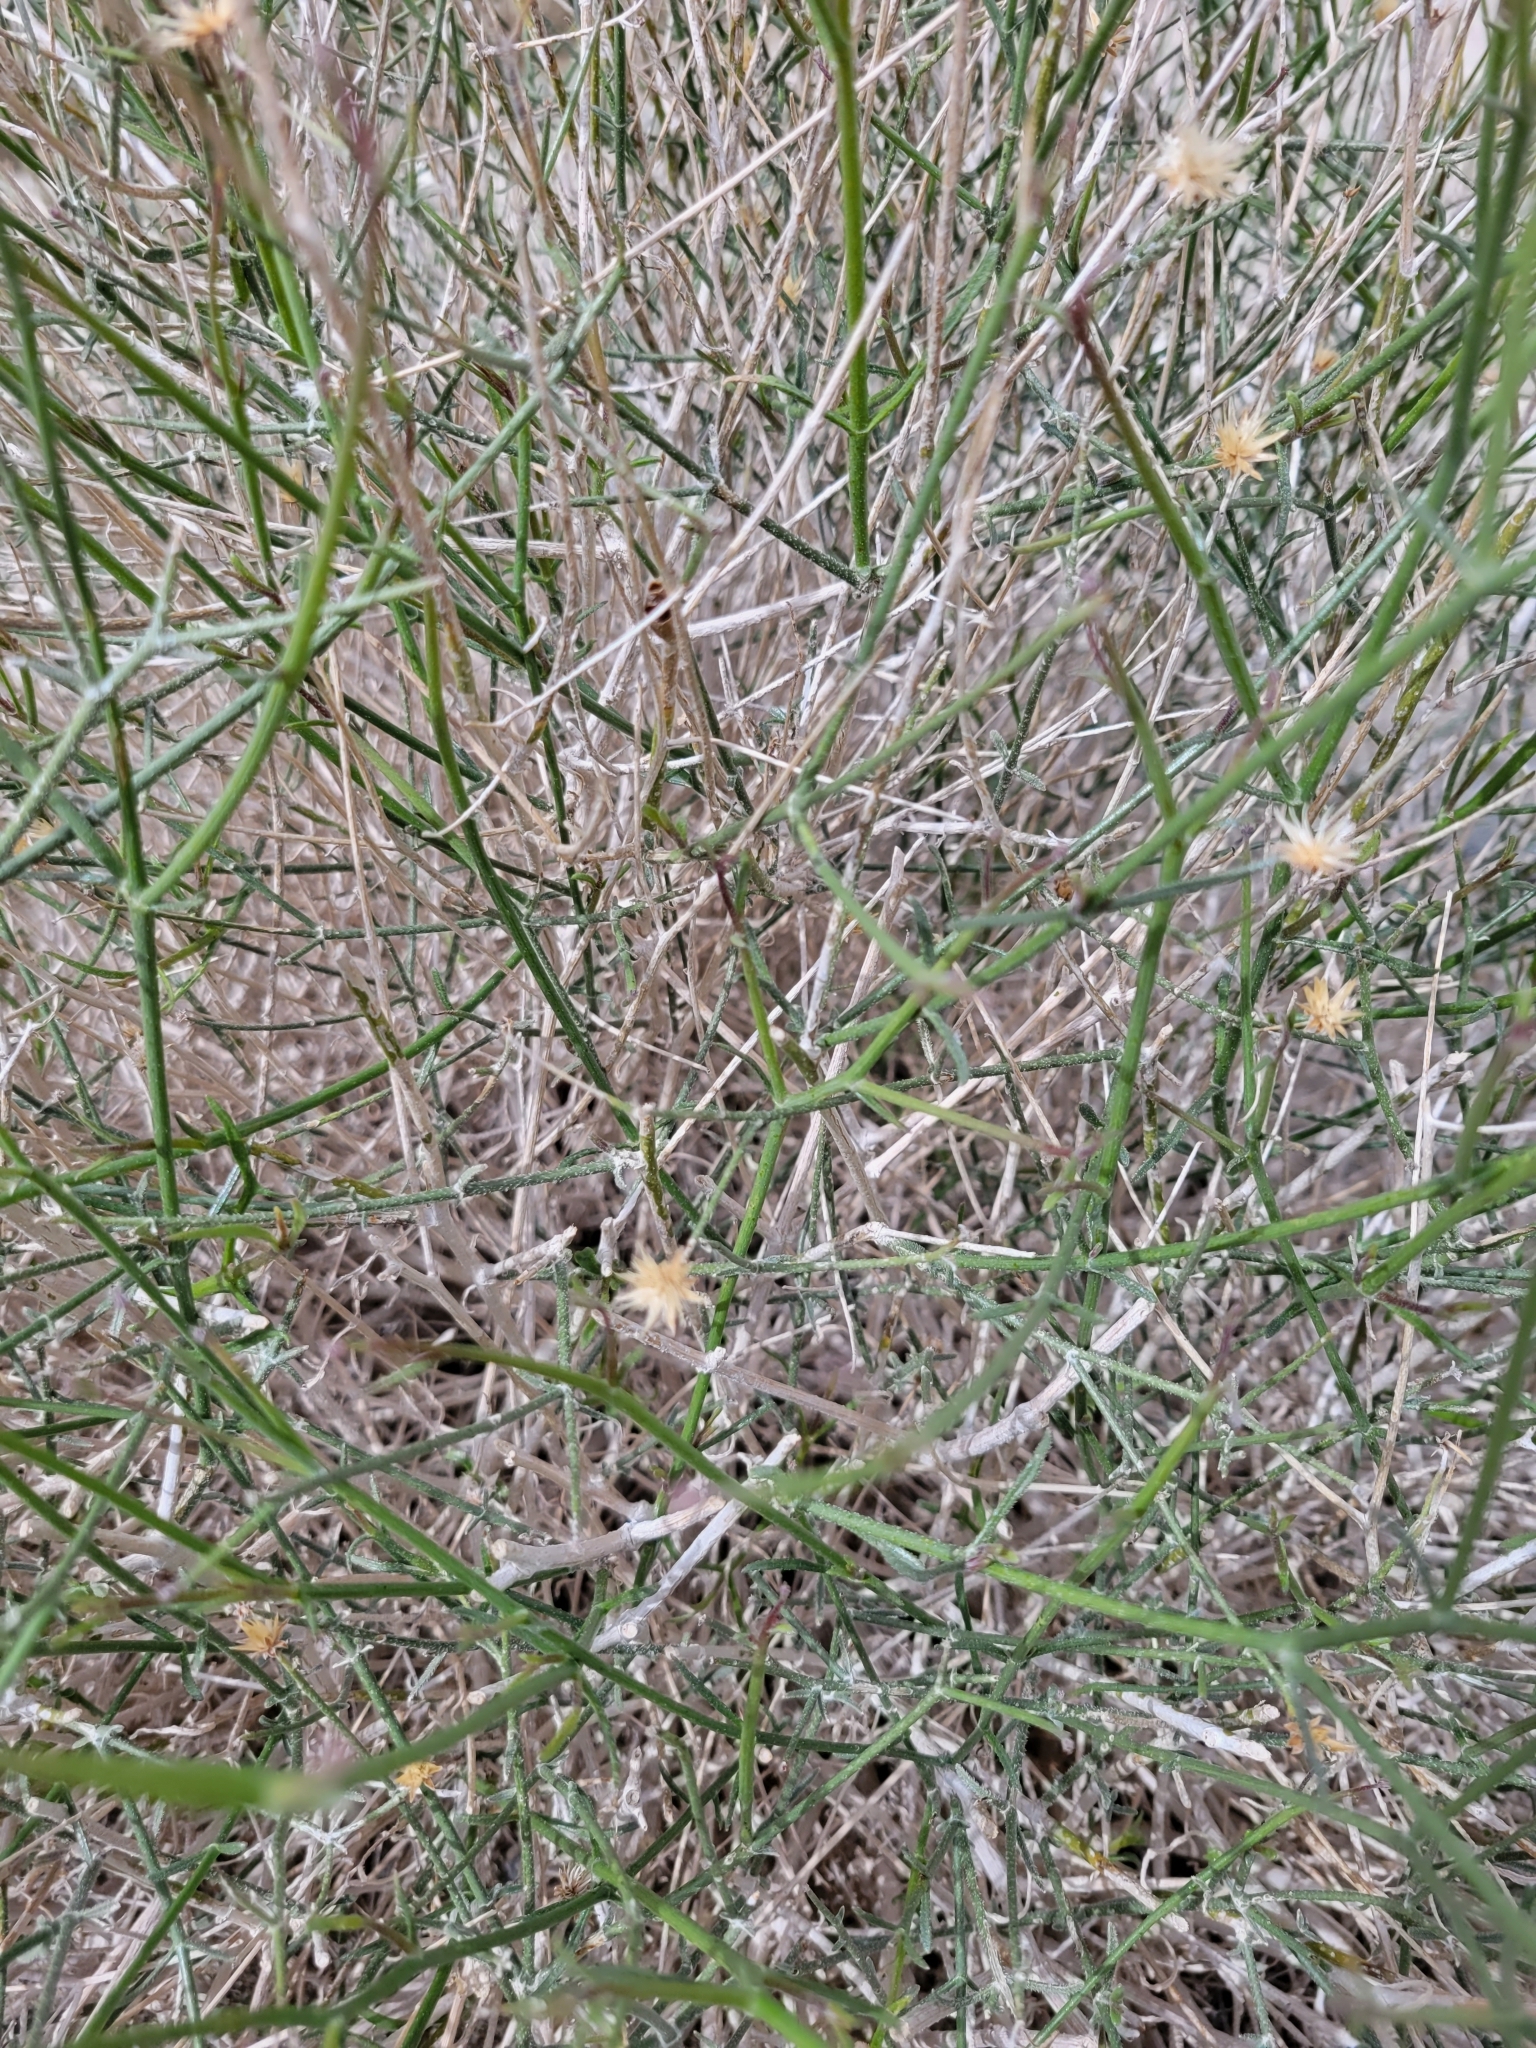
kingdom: Plantae
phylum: Tracheophyta
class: Magnoliopsida
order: Asterales
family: Asteraceae
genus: Bebbia
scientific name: Bebbia juncea
